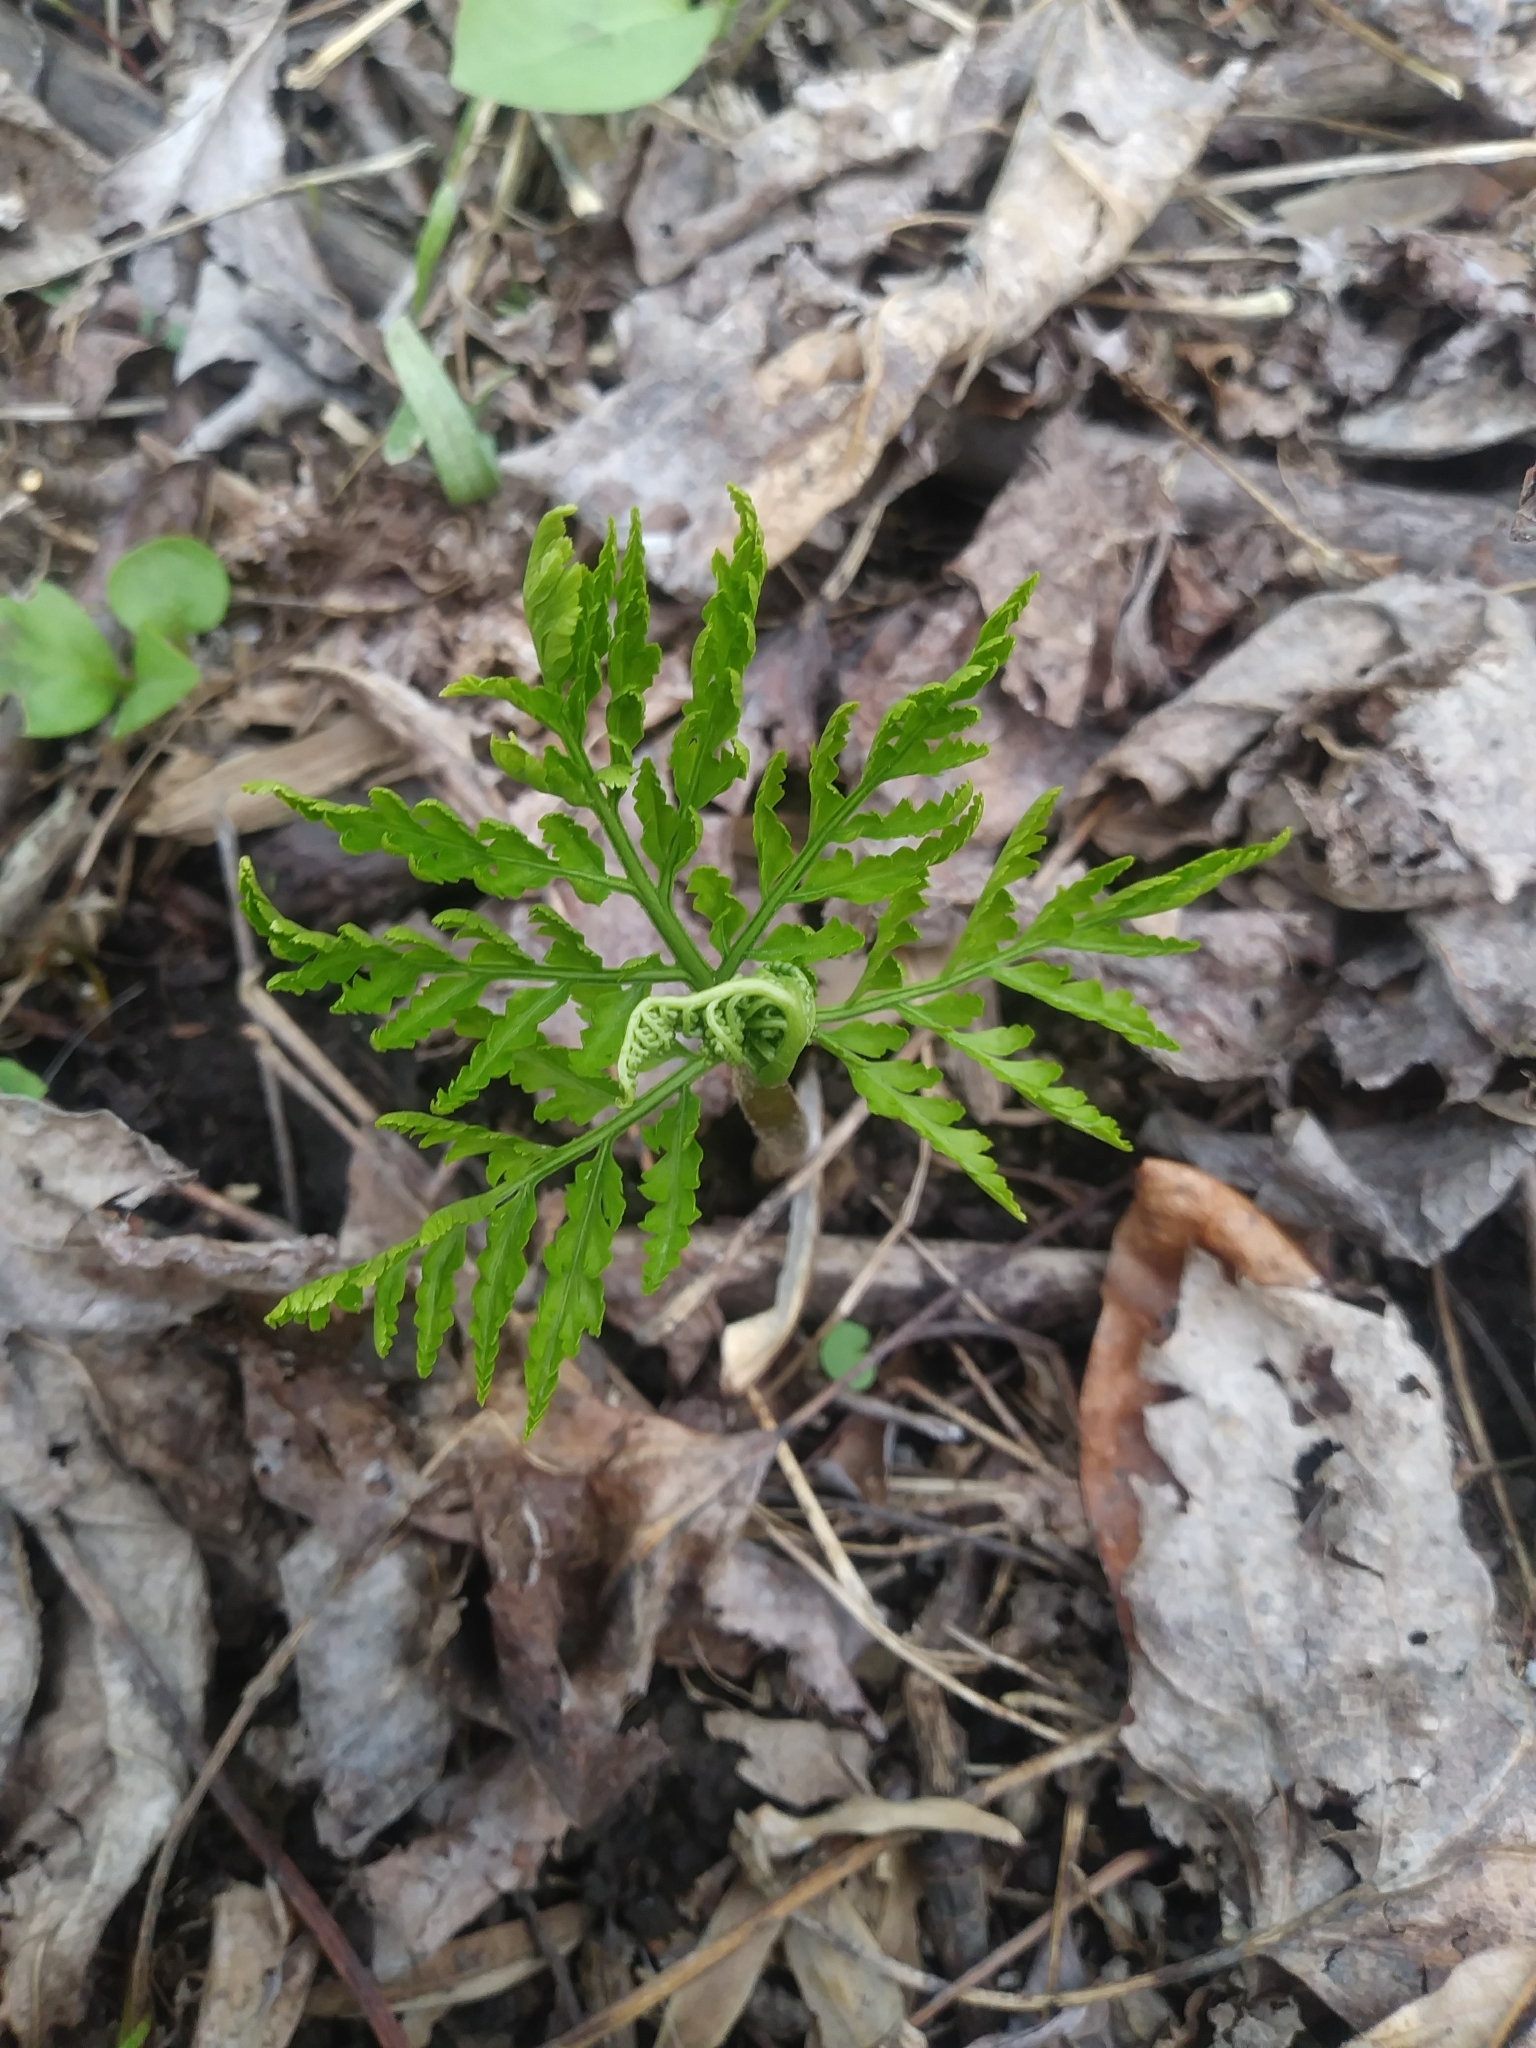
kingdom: Plantae
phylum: Tracheophyta
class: Polypodiopsida
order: Ophioglossales
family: Ophioglossaceae
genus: Botrypus
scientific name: Botrypus virginianus
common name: Common grapefern
